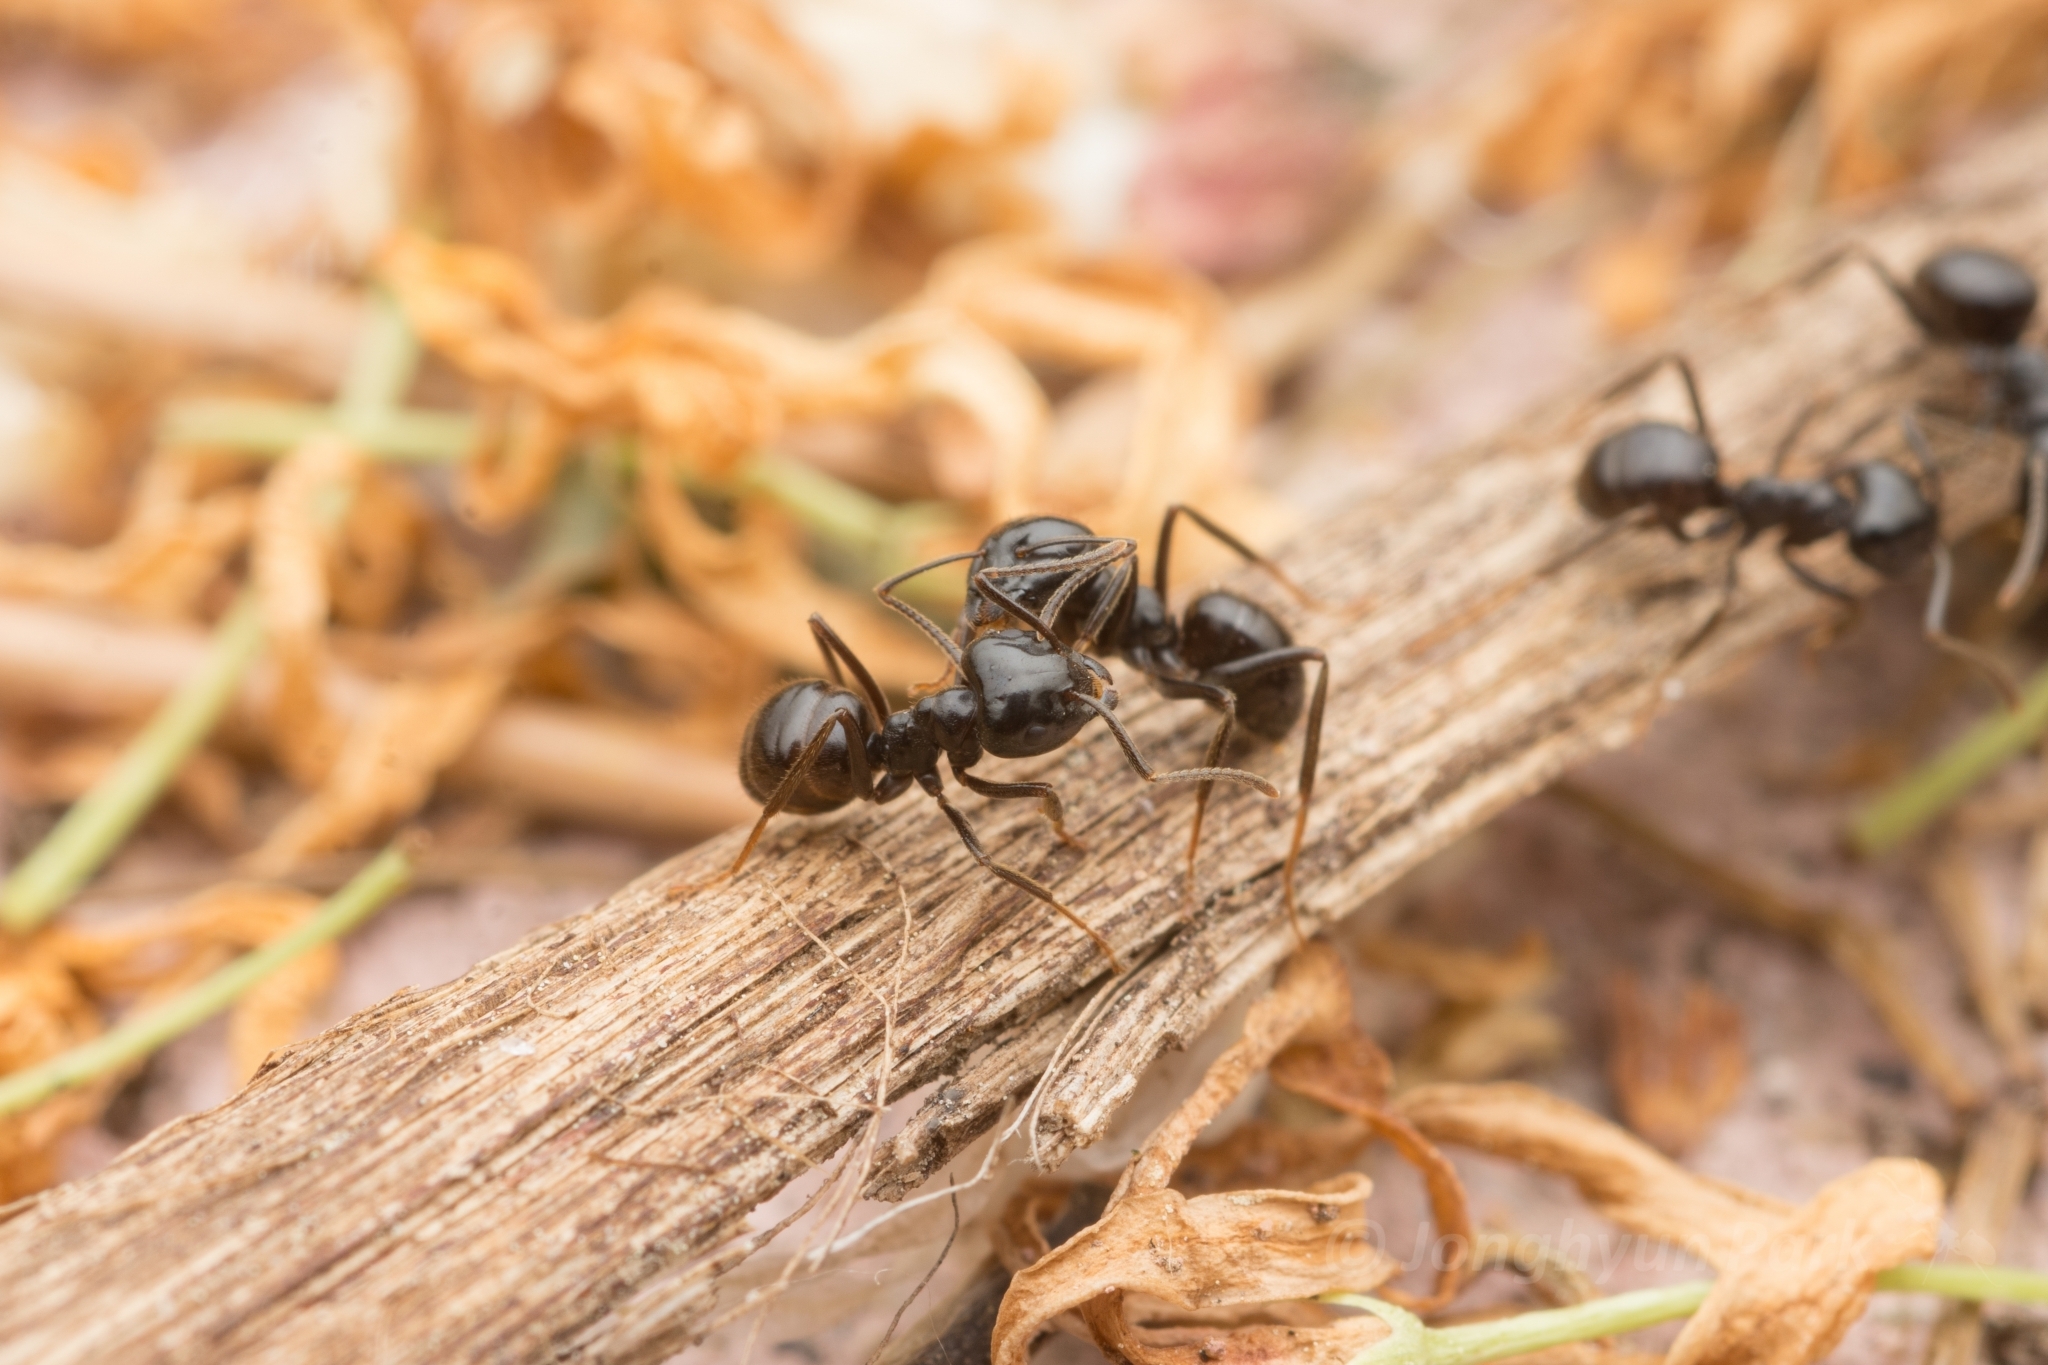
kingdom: Animalia
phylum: Arthropoda
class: Insecta
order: Hymenoptera
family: Formicidae
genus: Lasius
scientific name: Lasius spathepus
